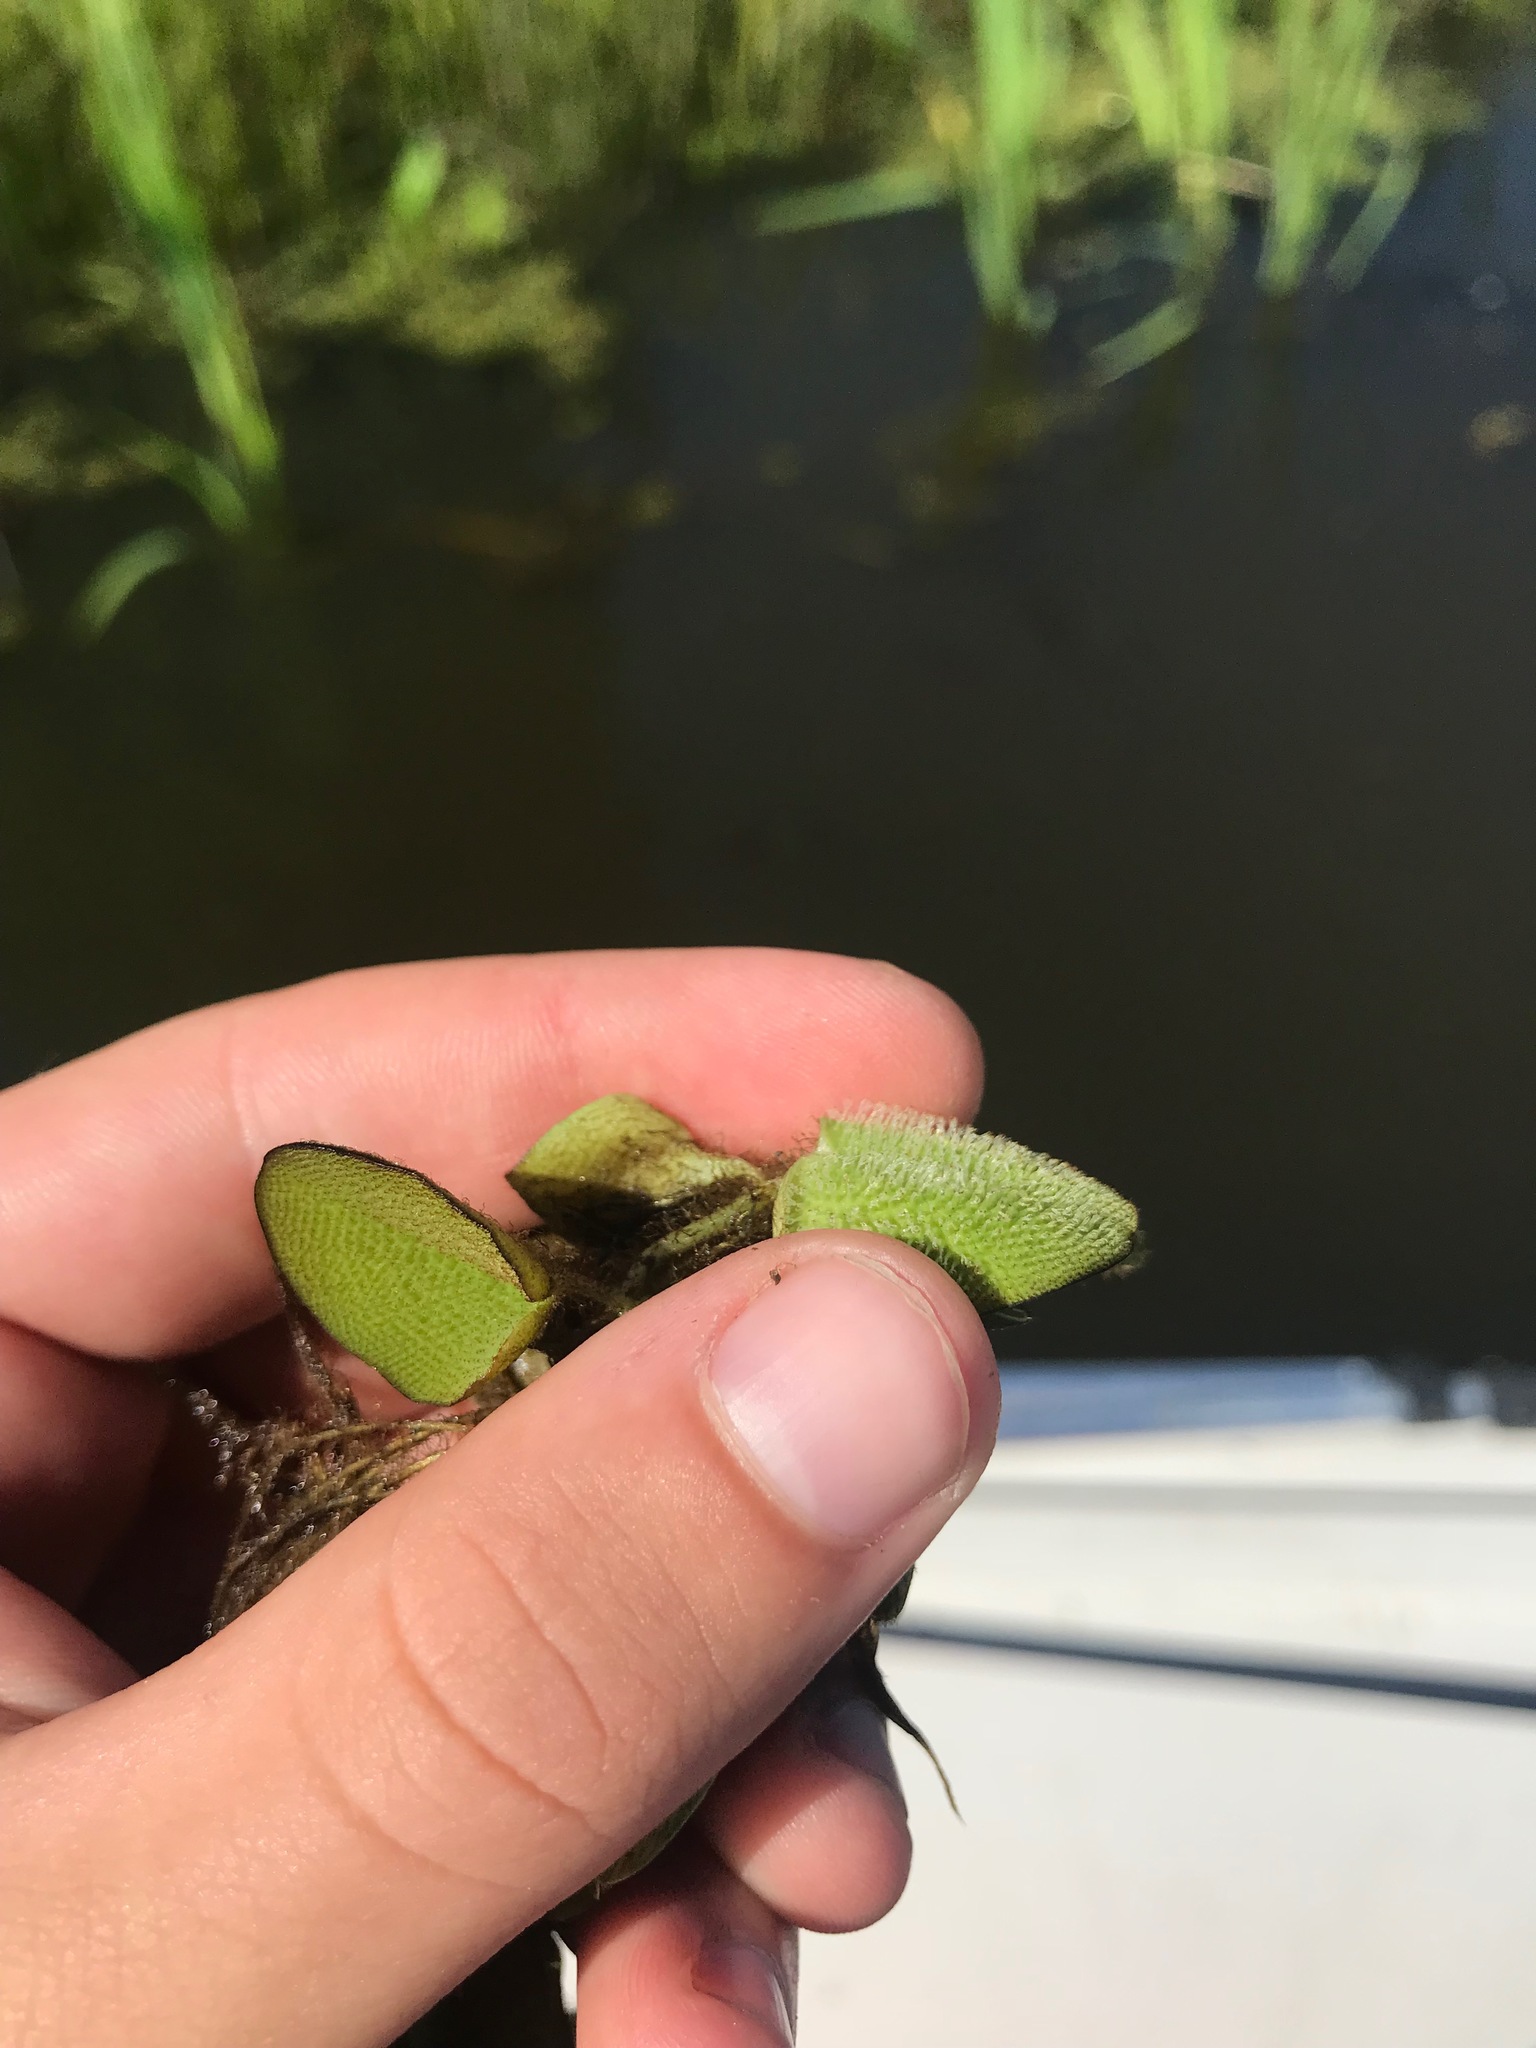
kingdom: Plantae
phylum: Tracheophyta
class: Polypodiopsida
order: Salviniales
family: Salviniaceae
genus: Salvinia
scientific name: Salvinia molesta
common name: Kariba weed
